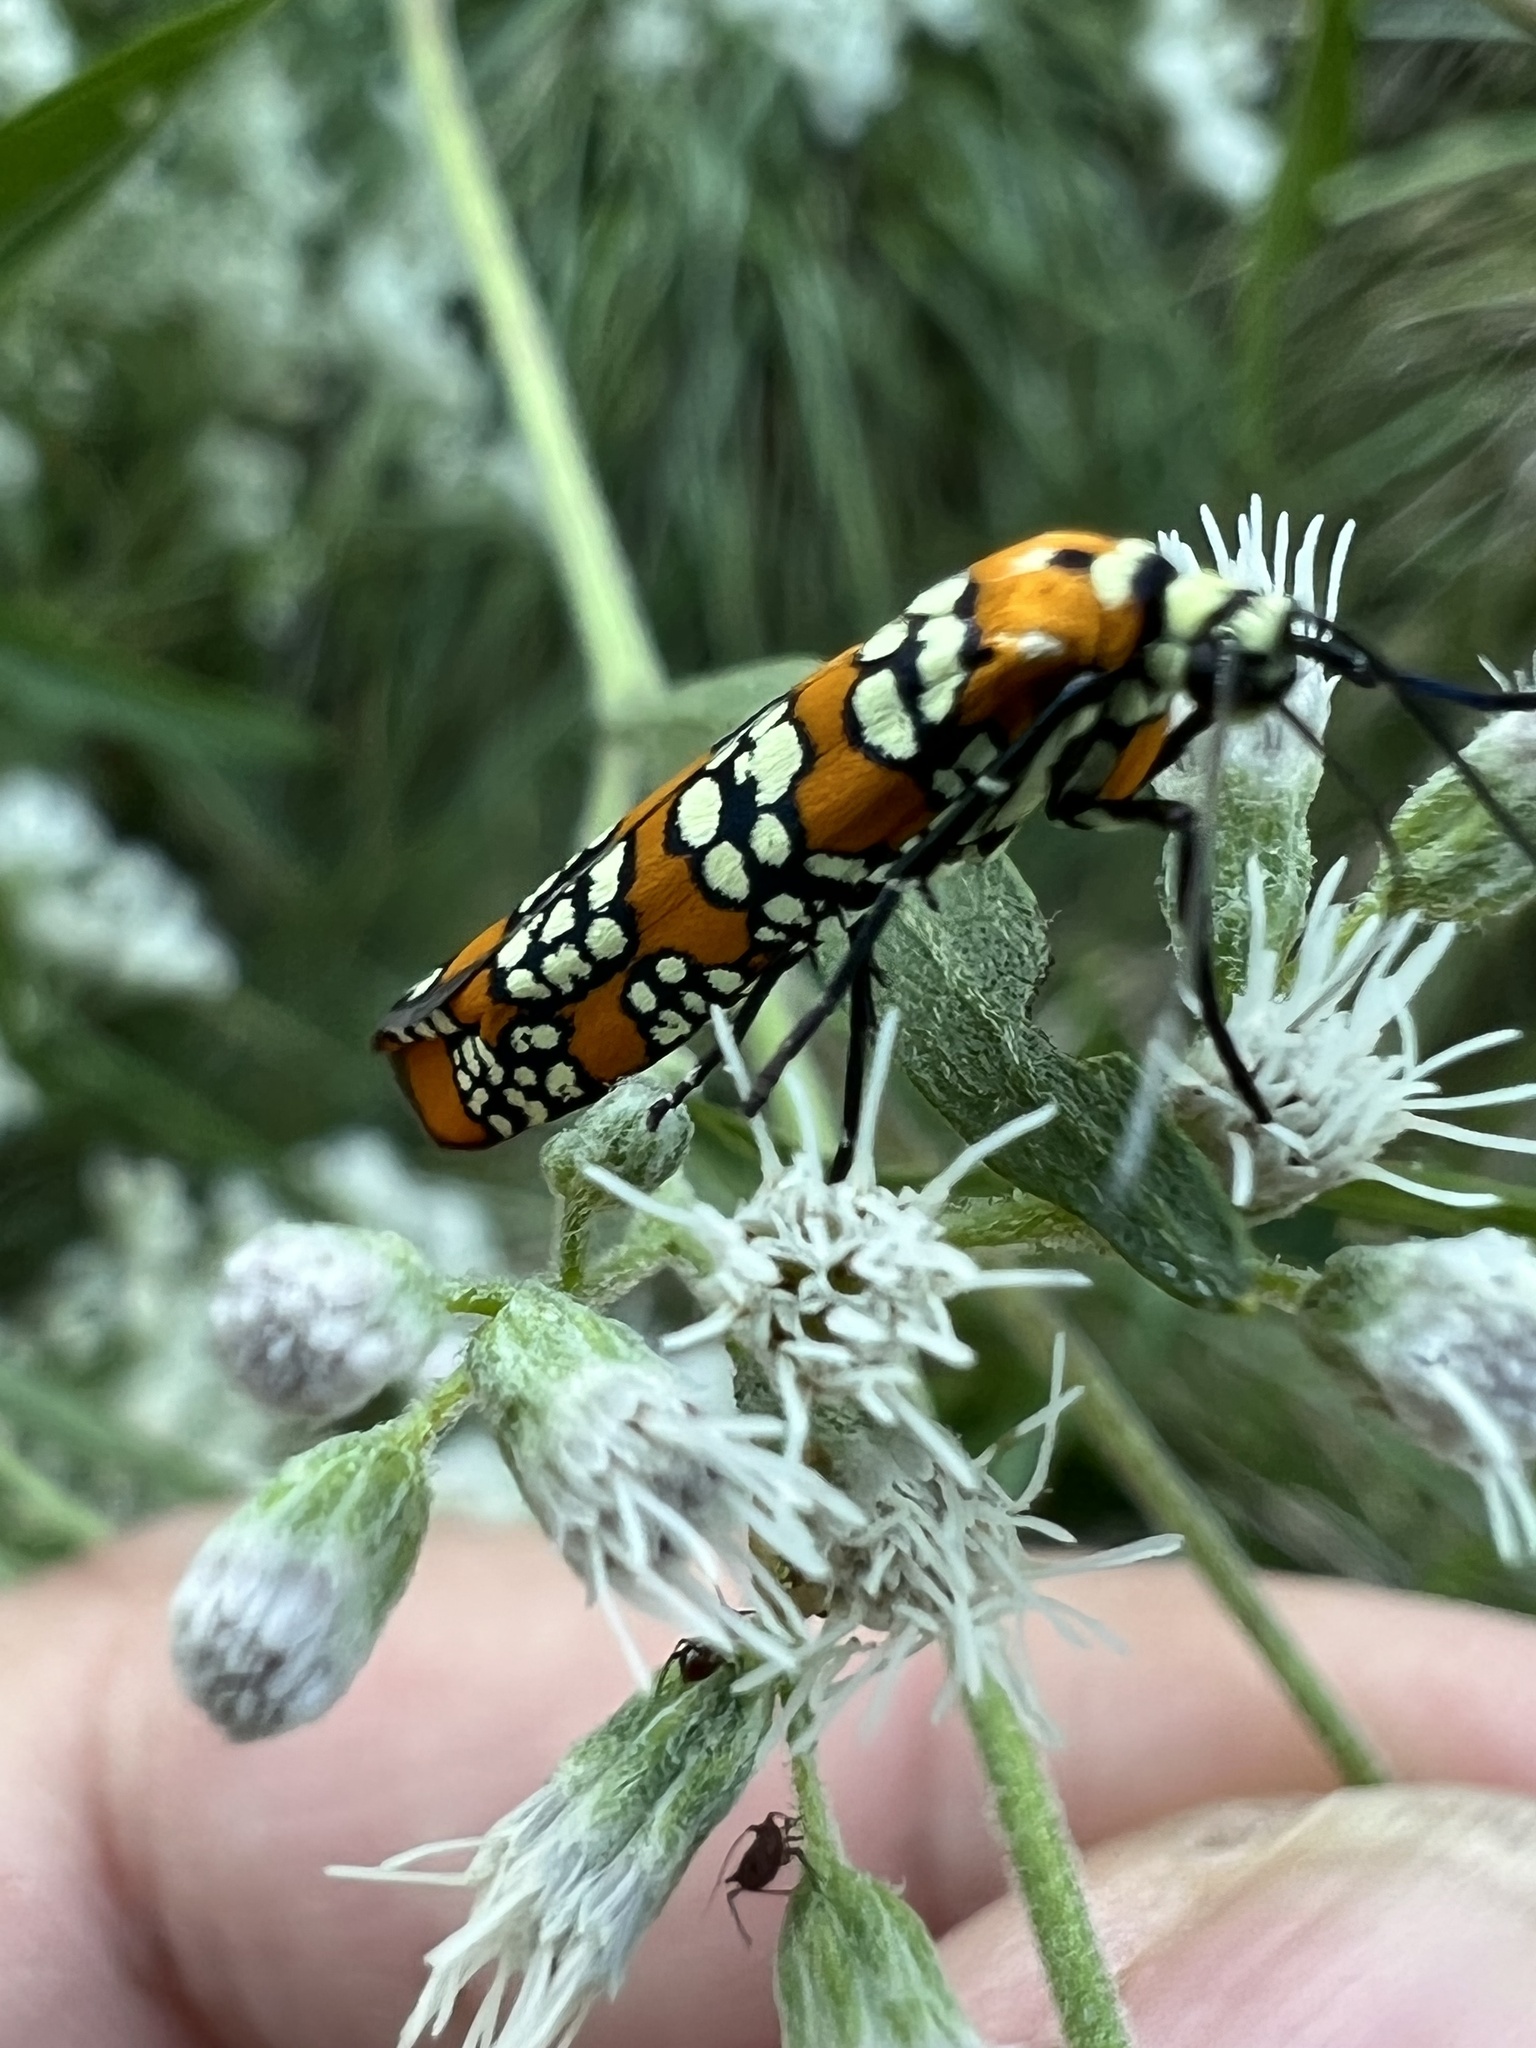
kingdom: Animalia
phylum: Arthropoda
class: Insecta
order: Lepidoptera
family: Attevidae
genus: Atteva
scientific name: Atteva punctella
